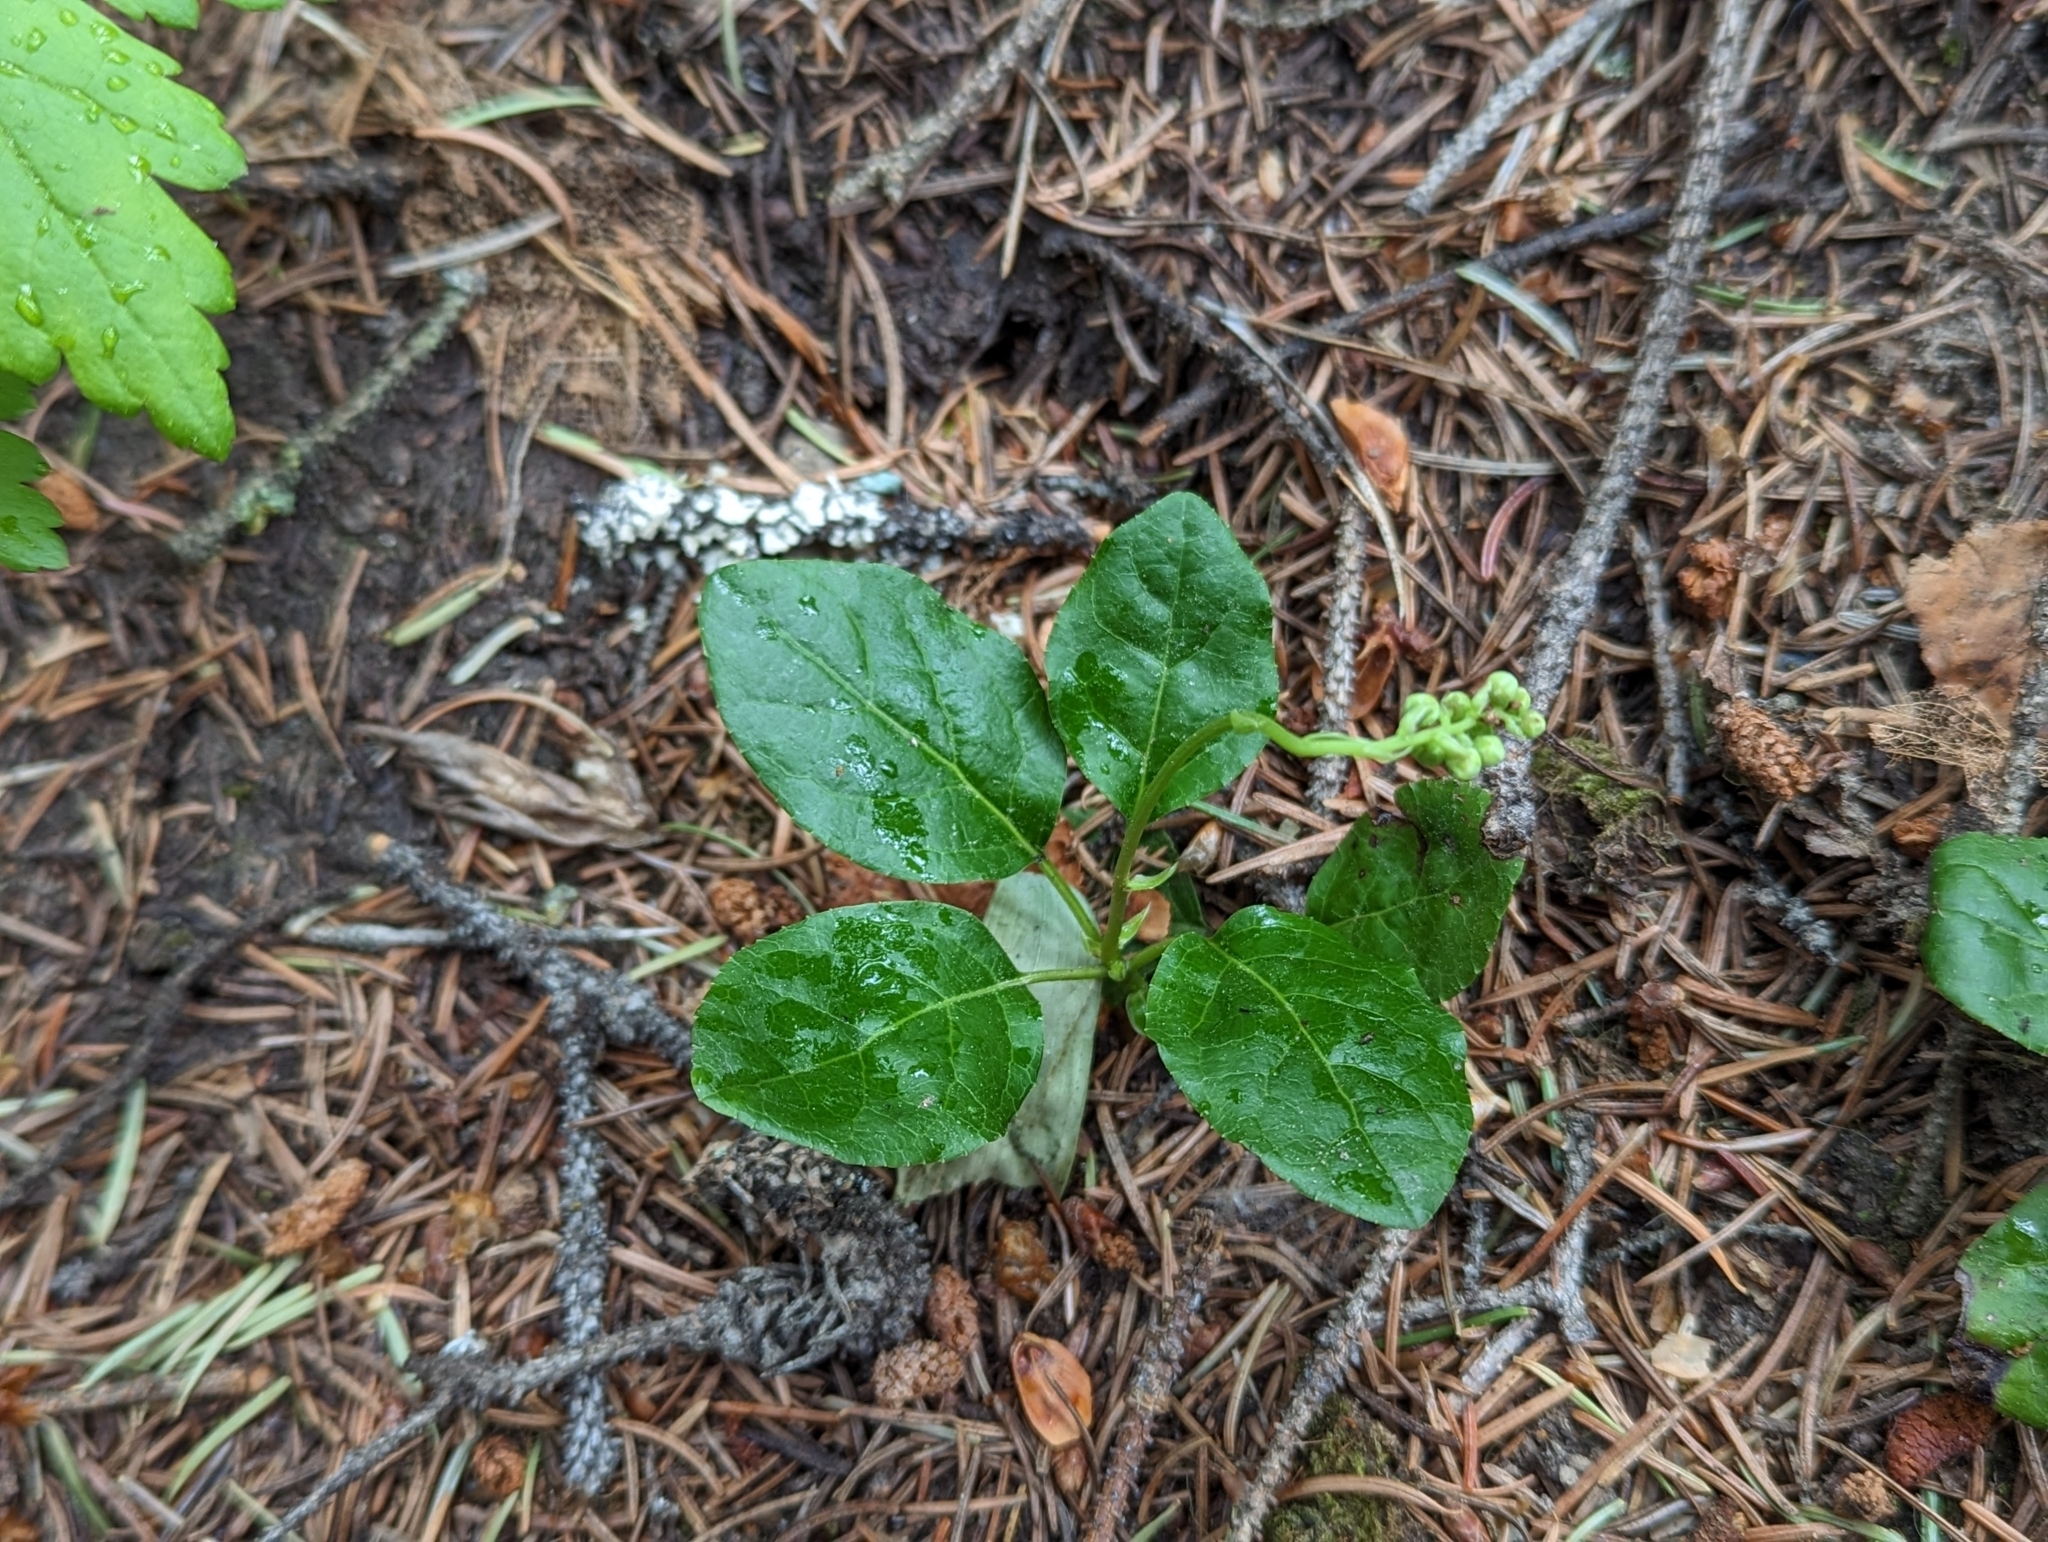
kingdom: Plantae
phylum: Tracheophyta
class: Magnoliopsida
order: Ericales
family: Ericaceae
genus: Orthilia
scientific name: Orthilia secunda
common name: One-sided orthilia
